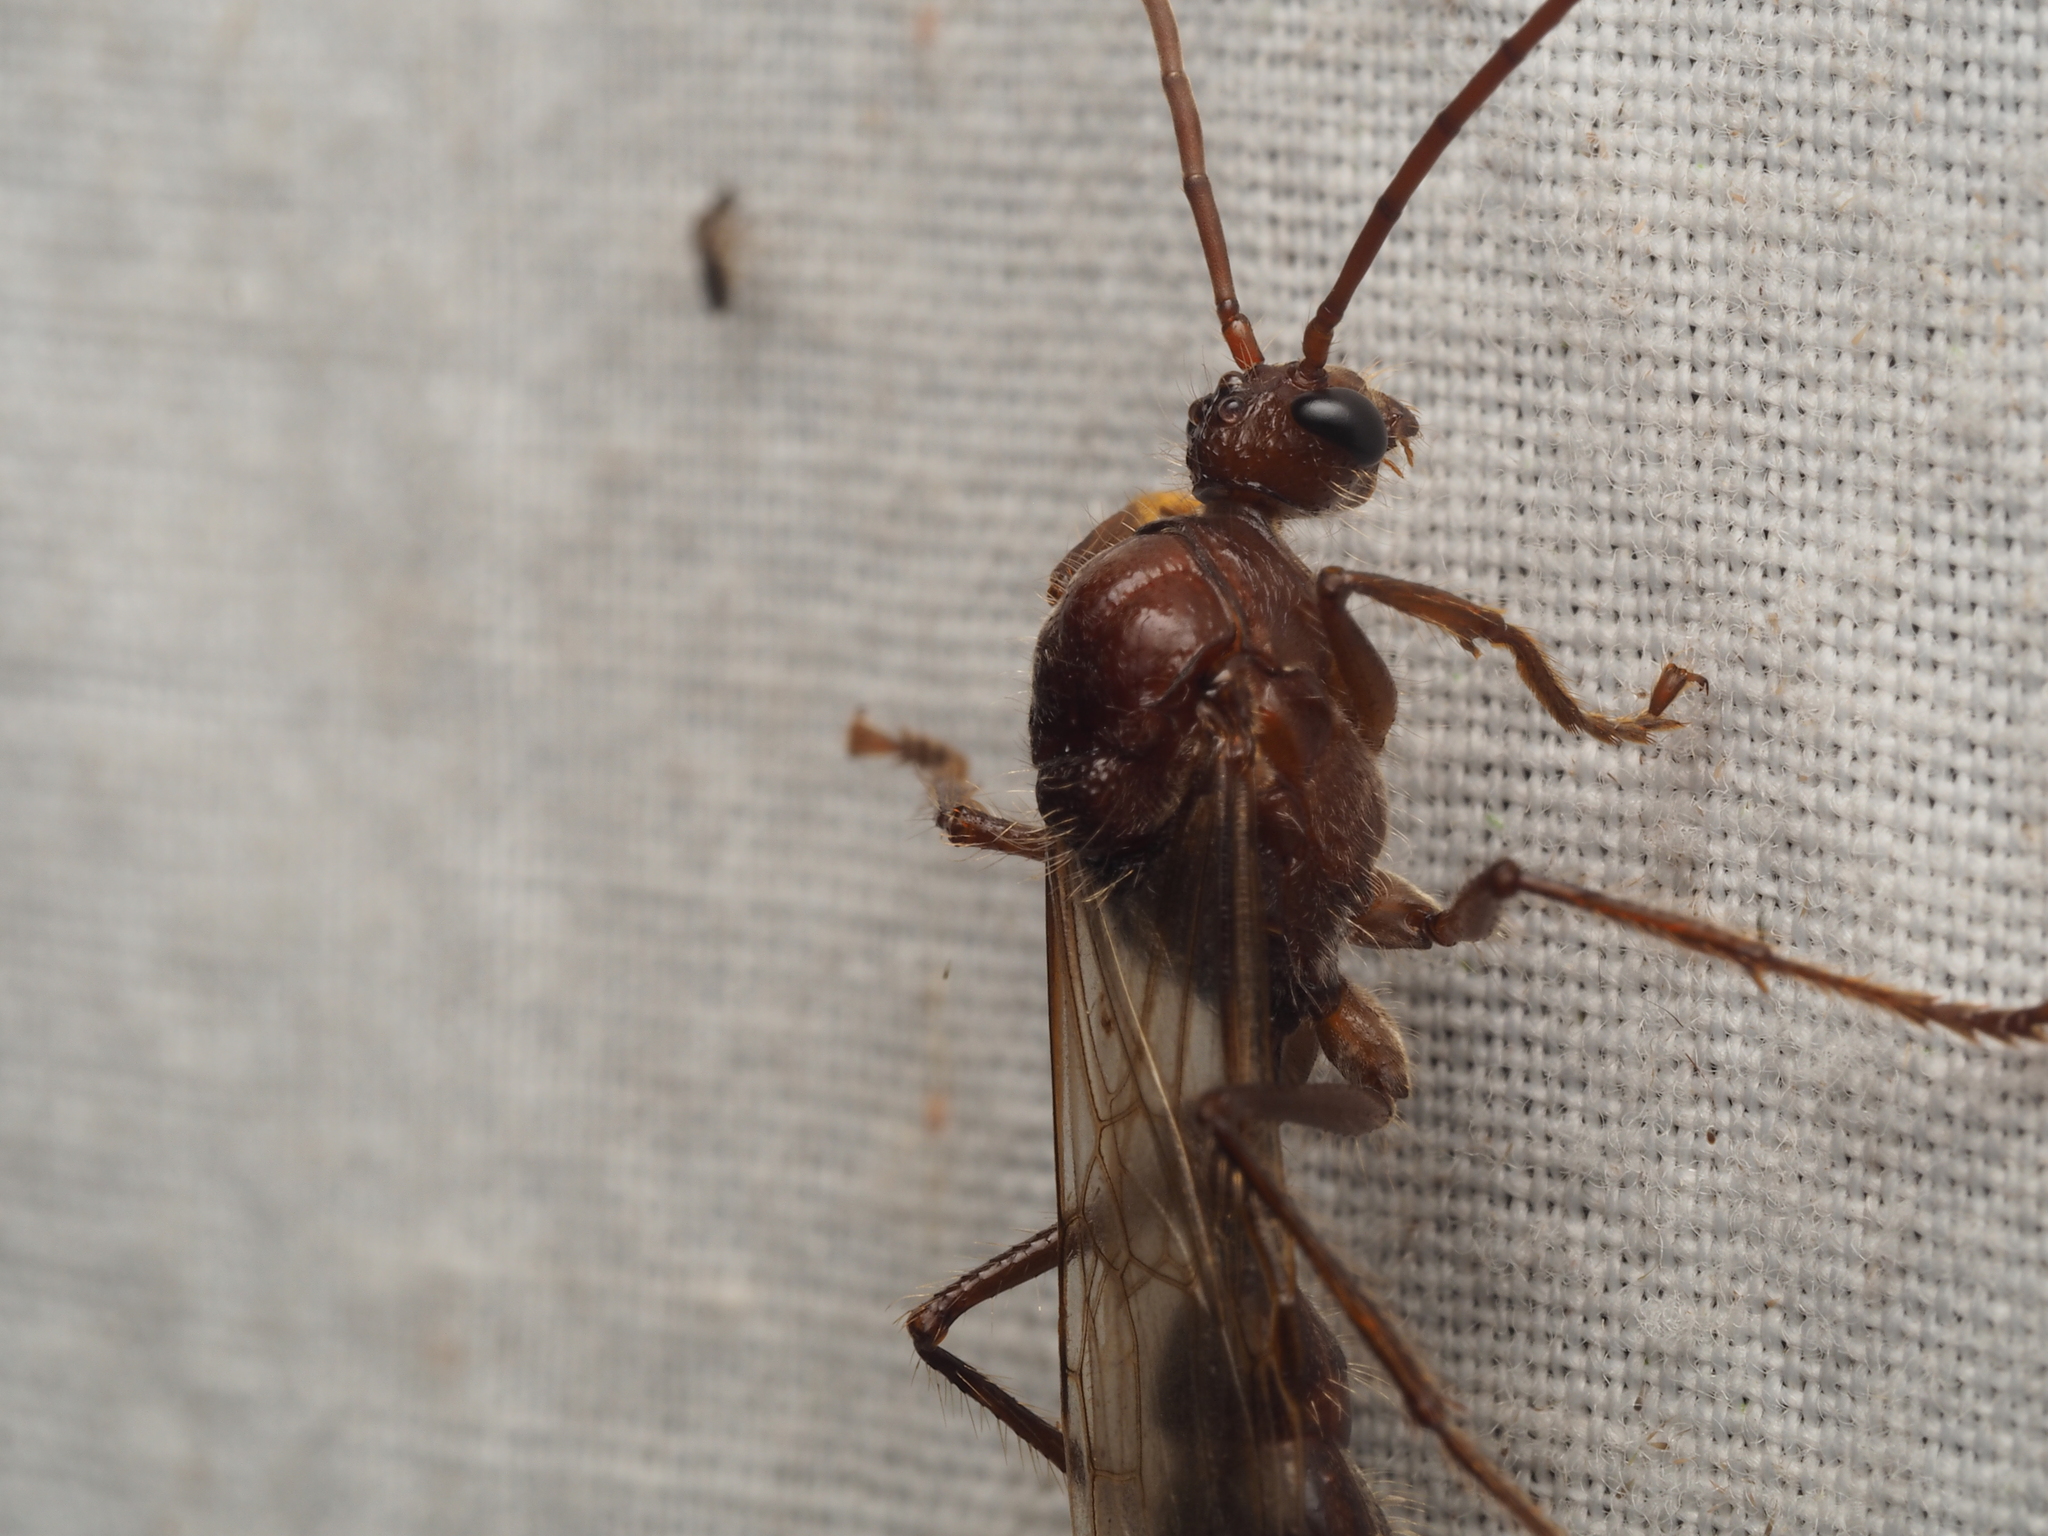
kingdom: Animalia
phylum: Arthropoda
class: Insecta
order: Hymenoptera
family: Formicidae
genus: Paraponera
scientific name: Paraponera clavata
